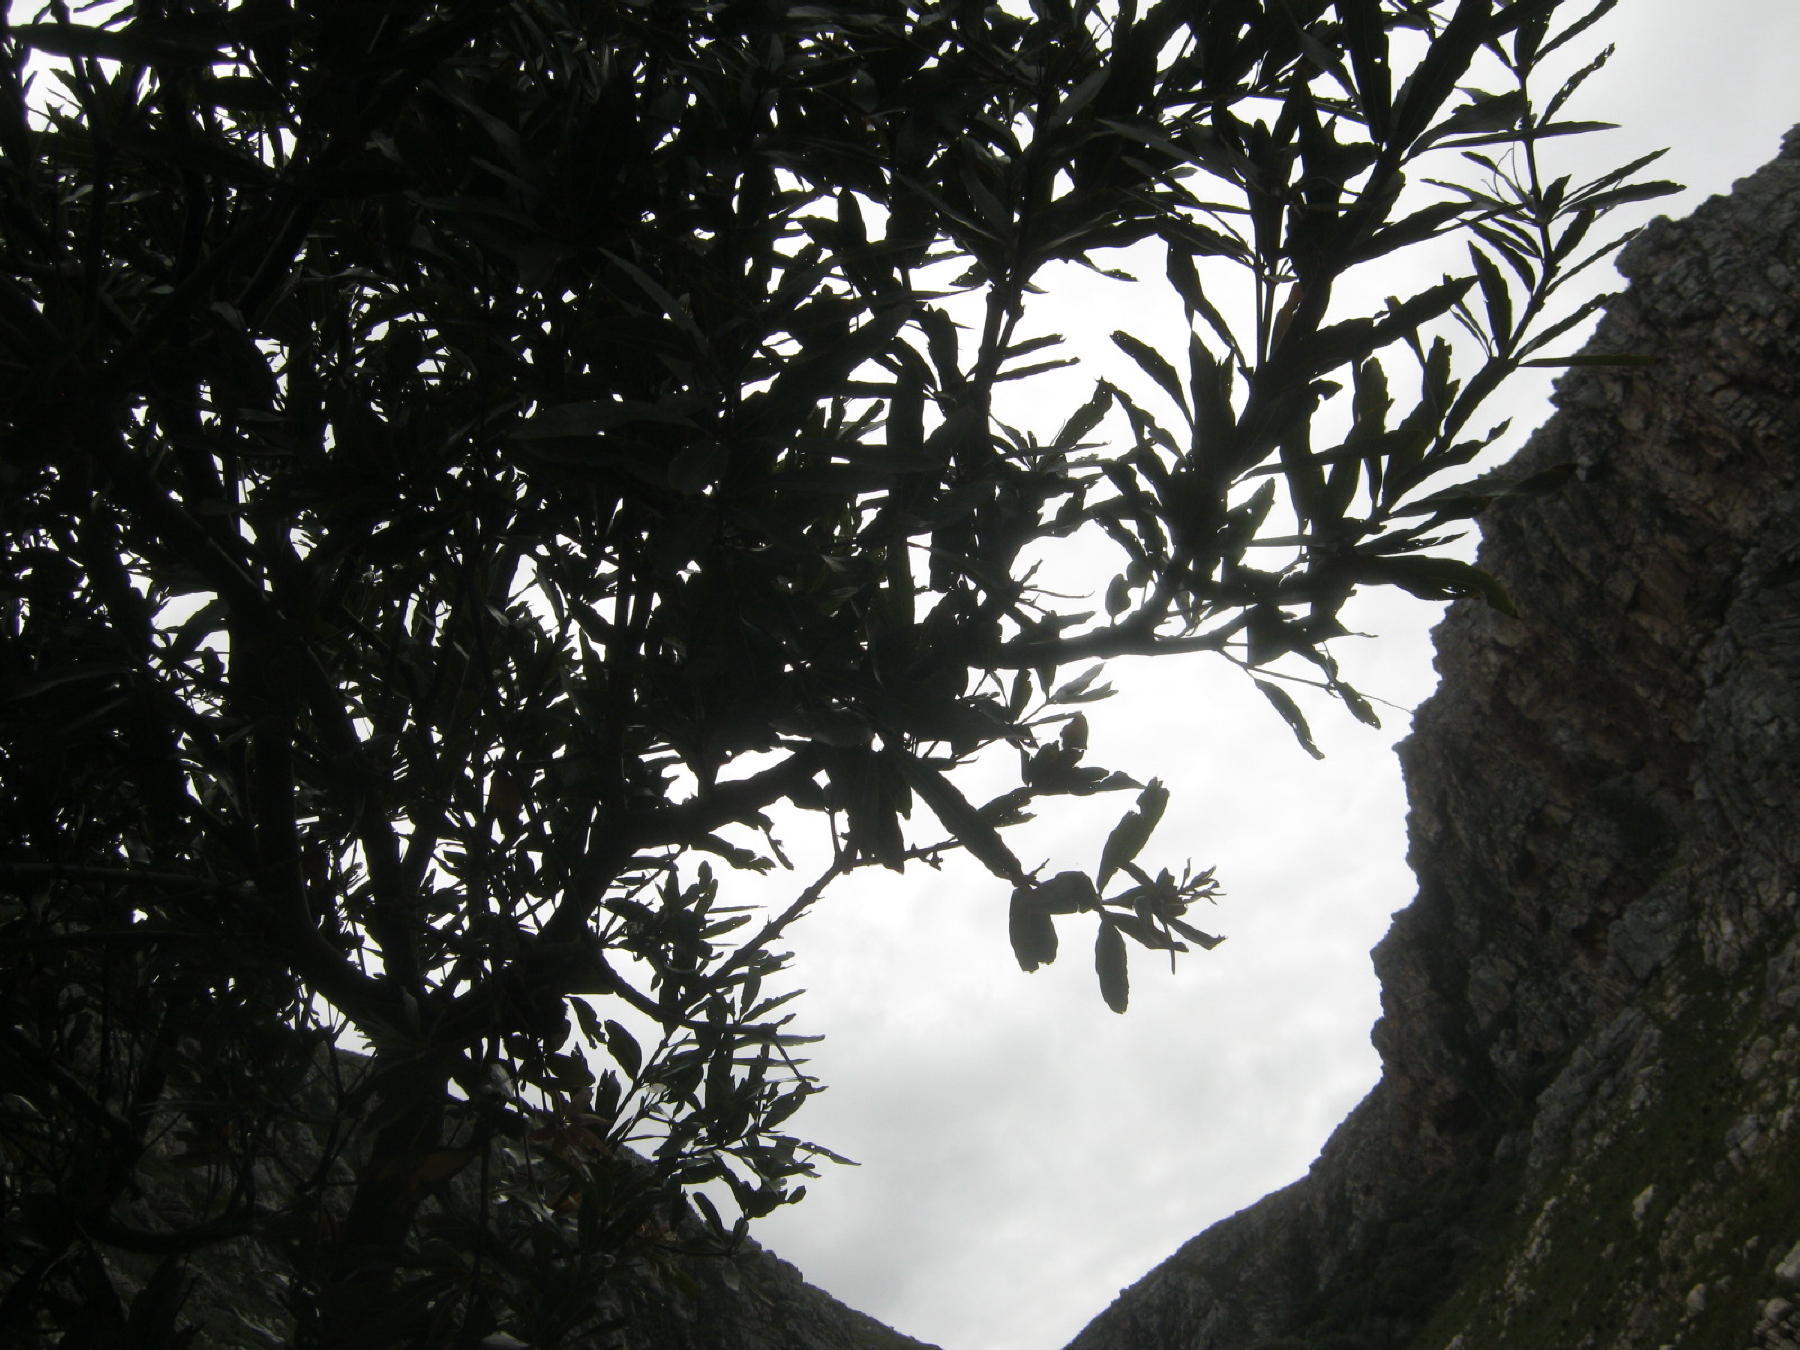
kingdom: Plantae
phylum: Tracheophyta
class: Magnoliopsida
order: Proteales
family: Proteaceae
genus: Brabejum
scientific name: Brabejum stellatifolium
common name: Wild almond
